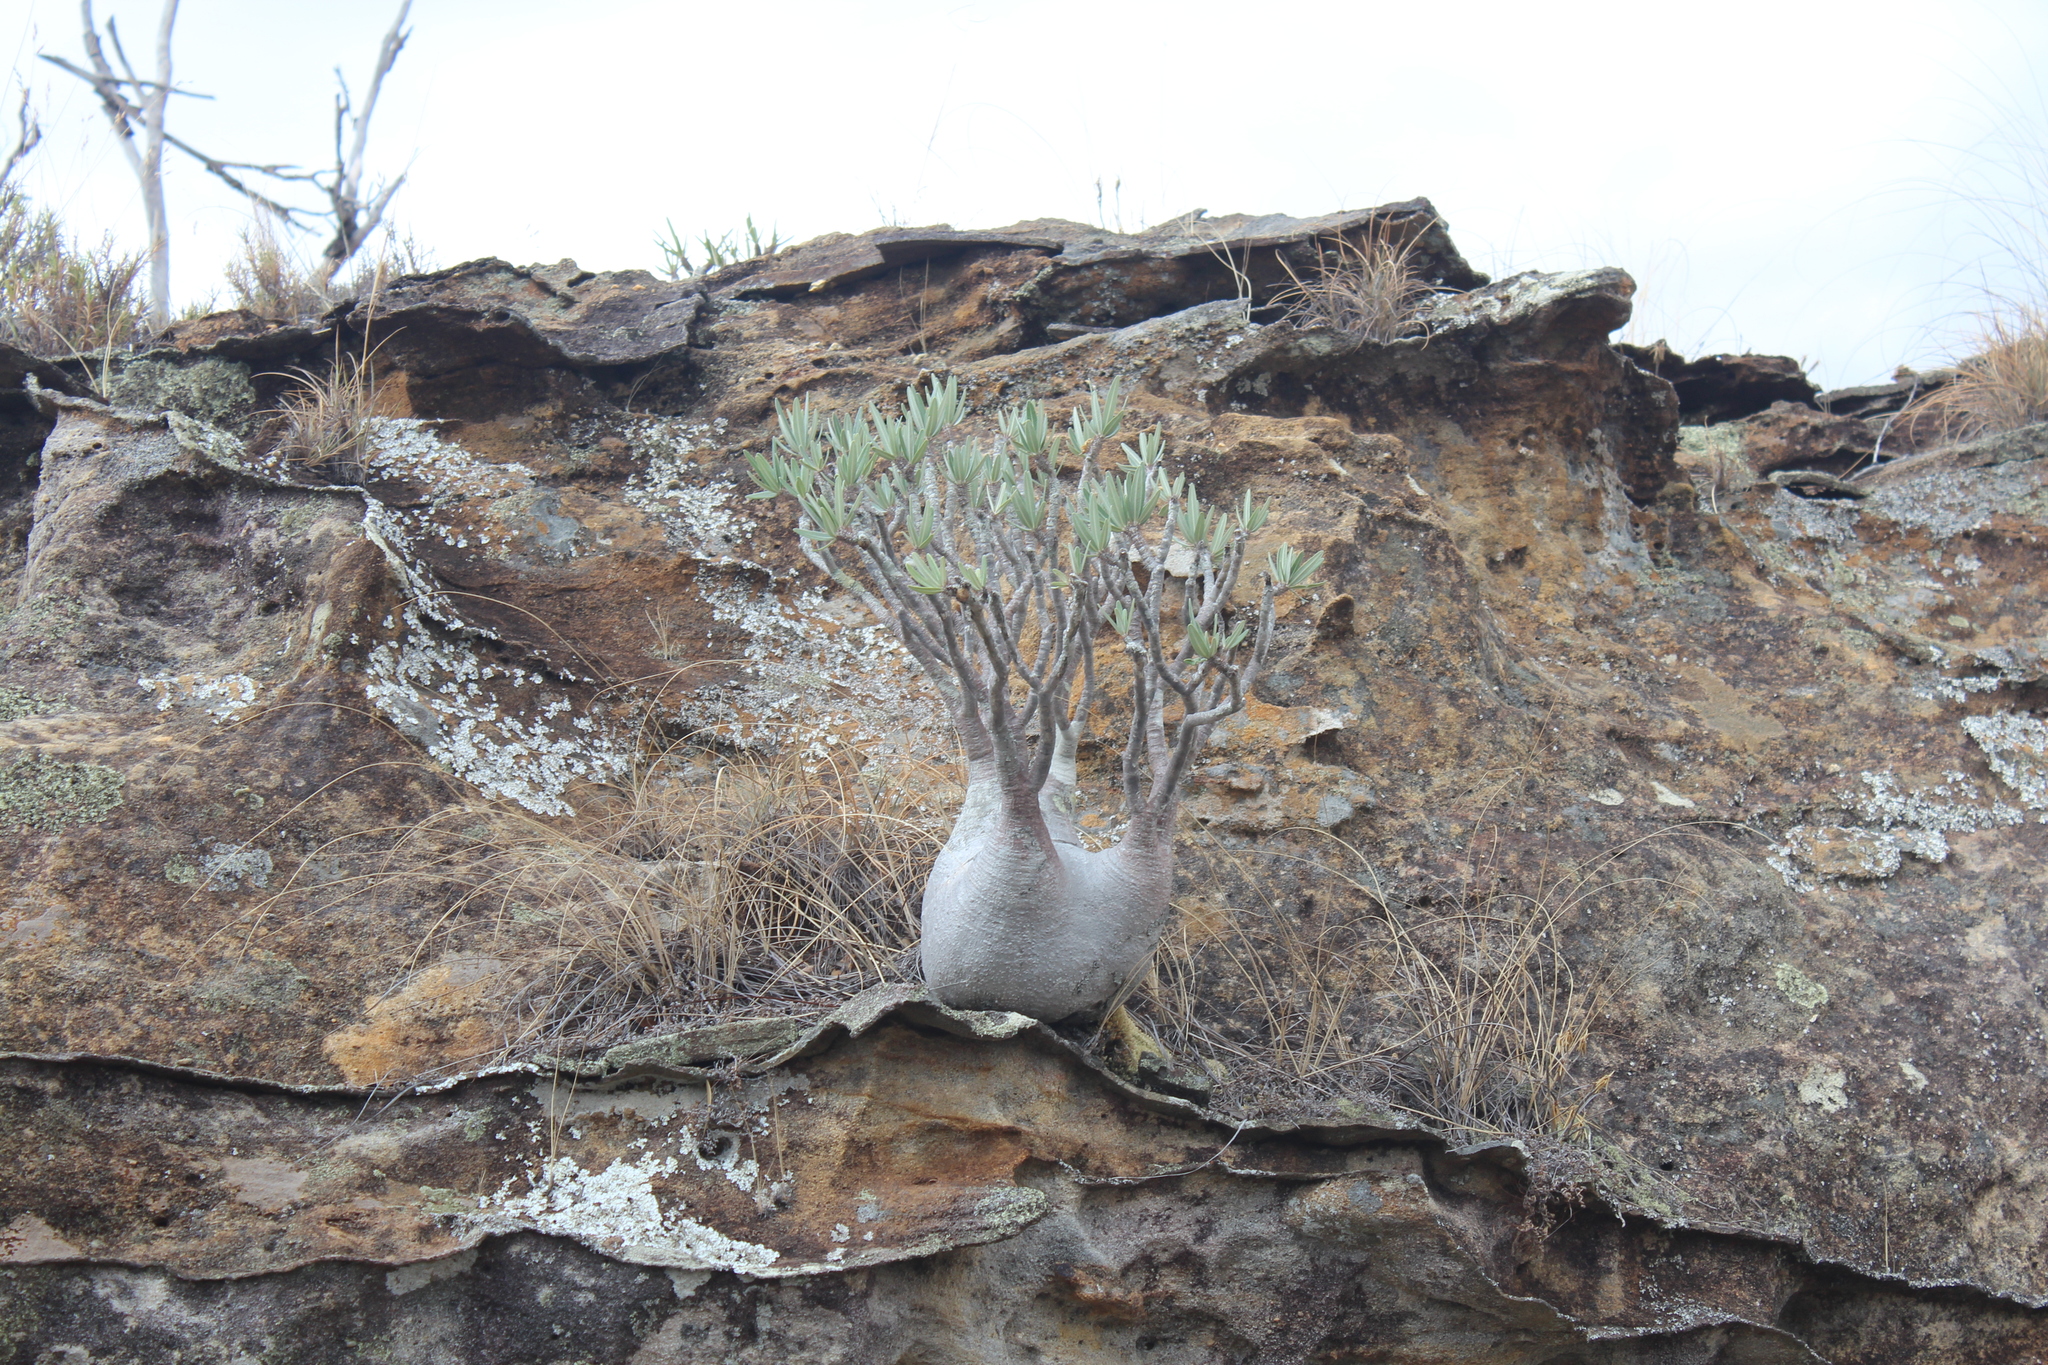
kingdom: Plantae
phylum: Tracheophyta
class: Magnoliopsida
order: Gentianales
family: Apocynaceae
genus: Pachypodium
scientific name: Pachypodium gracilius
